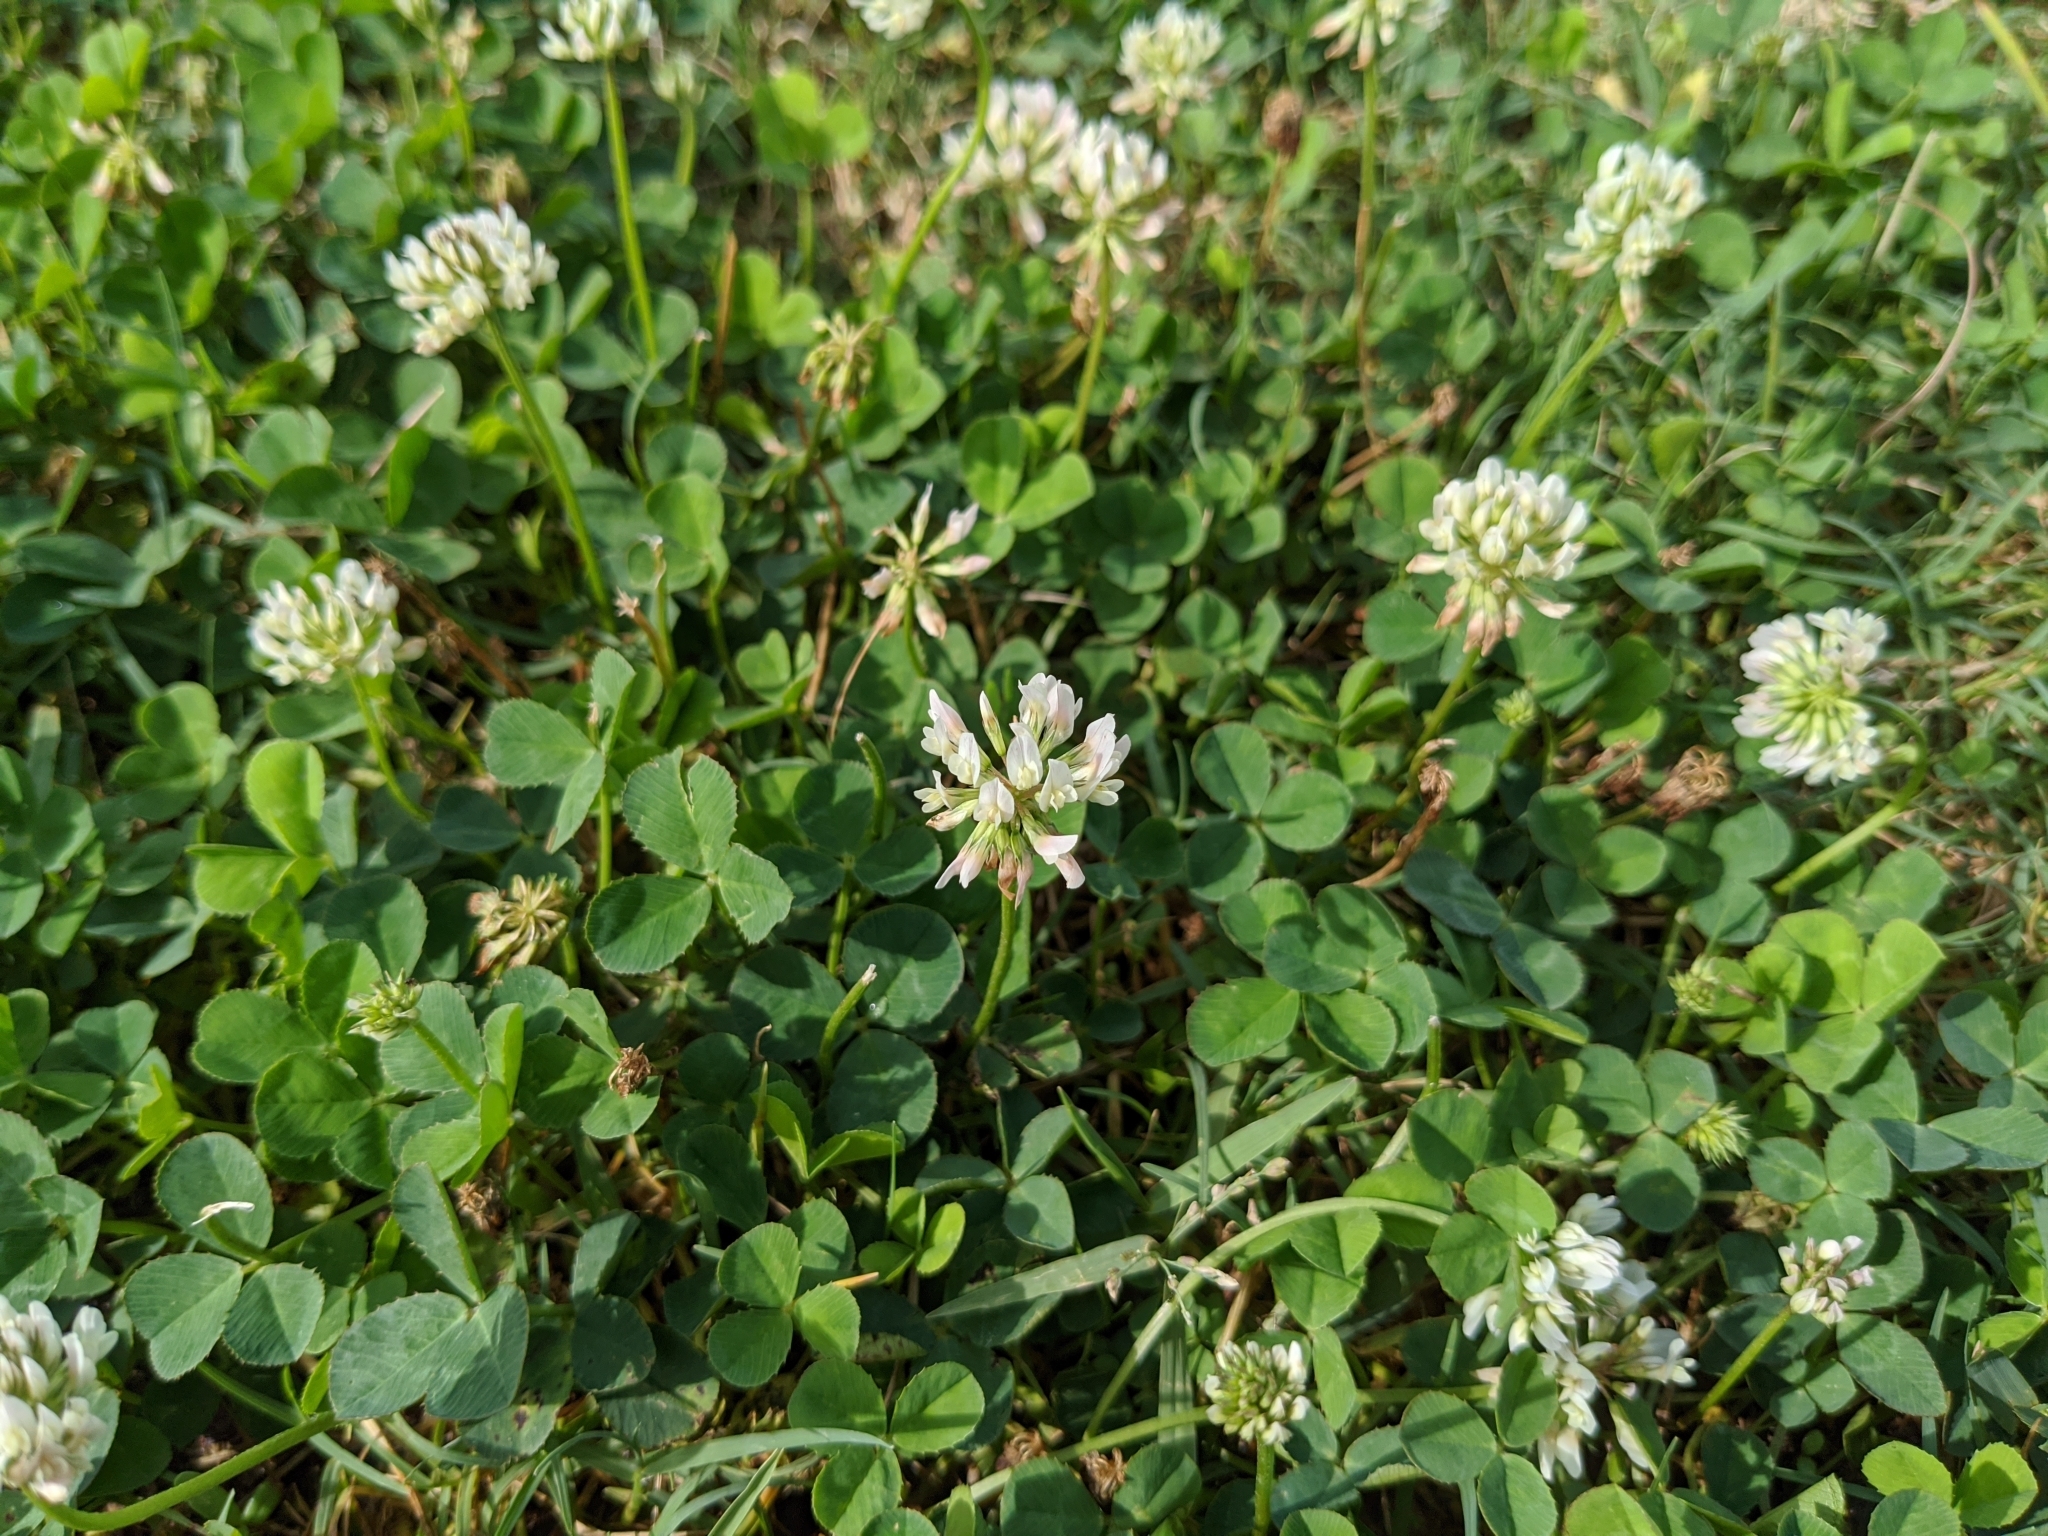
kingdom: Plantae
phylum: Tracheophyta
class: Magnoliopsida
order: Fabales
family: Fabaceae
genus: Trifolium
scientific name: Trifolium repens
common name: White clover
